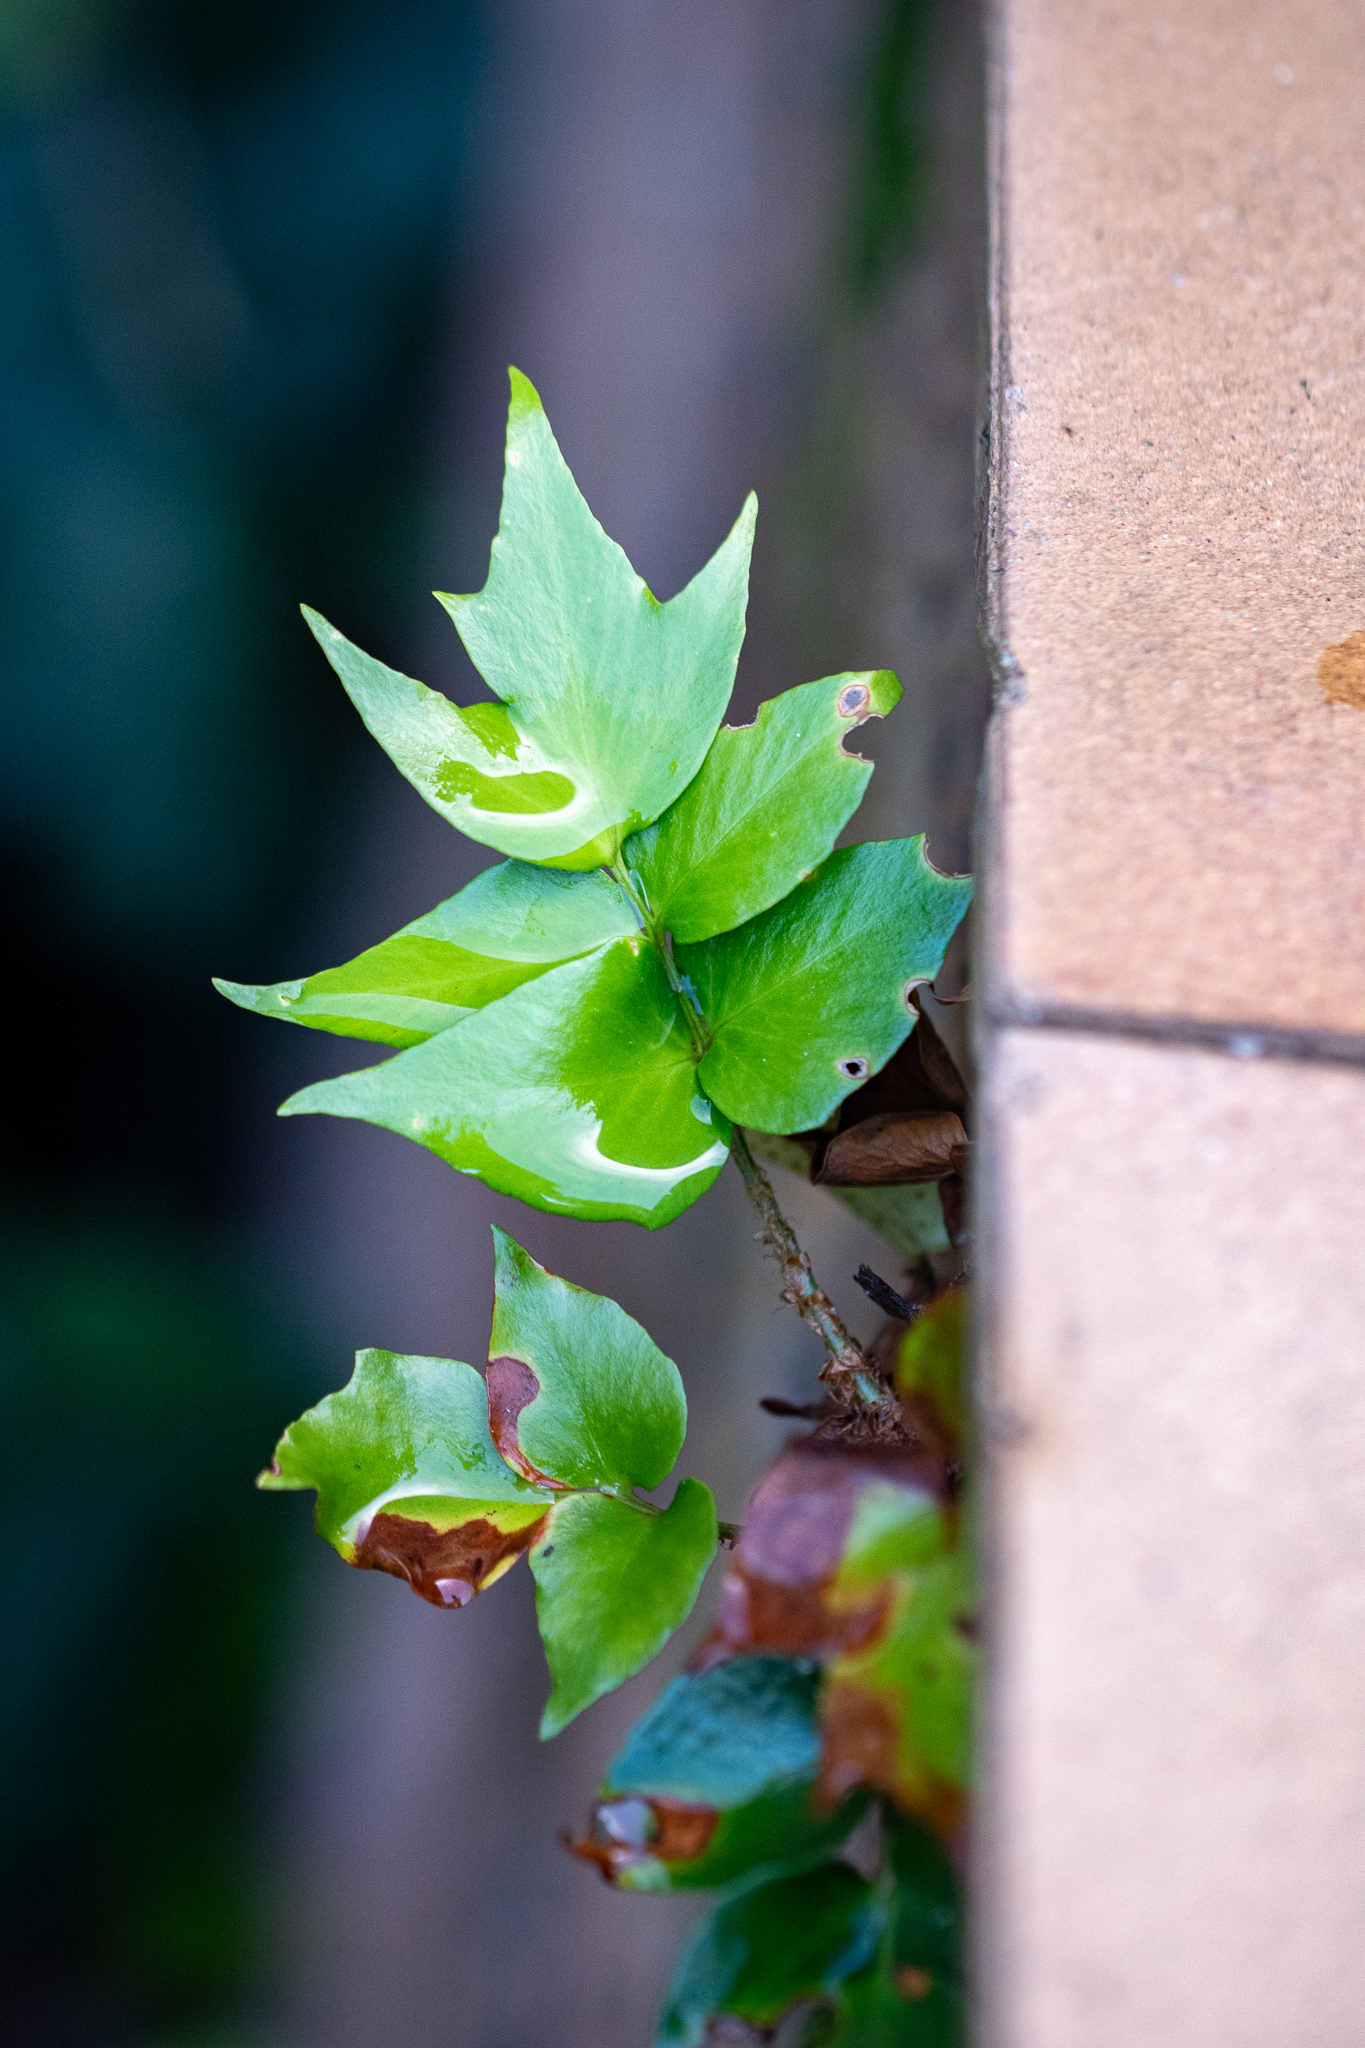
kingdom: Plantae
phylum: Tracheophyta
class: Polypodiopsida
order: Polypodiales
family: Dryopteridaceae
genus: Cyrtomium
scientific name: Cyrtomium falcatum
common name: House holly-fern
